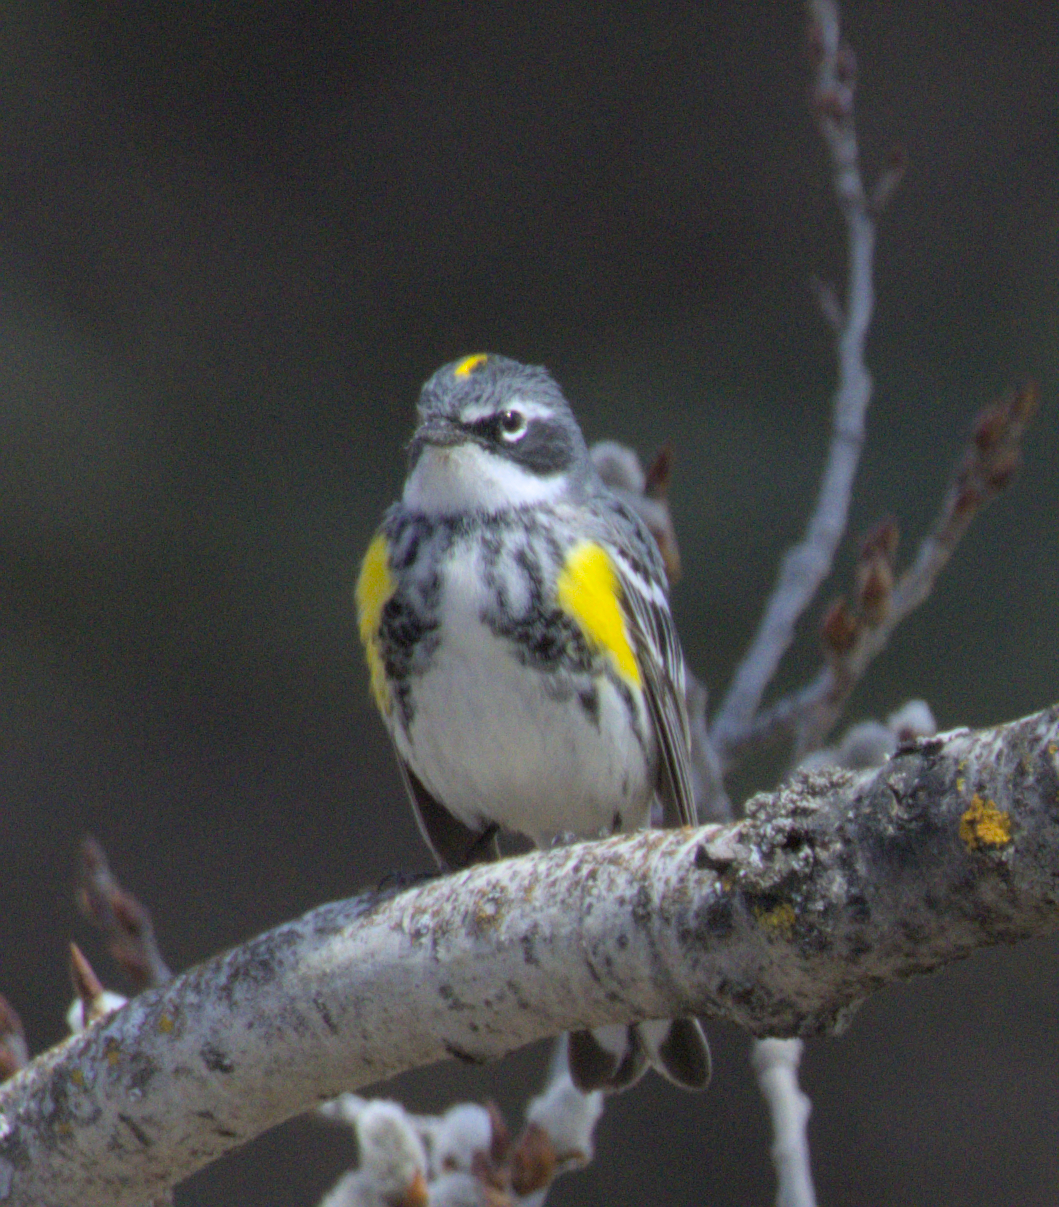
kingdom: Animalia
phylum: Chordata
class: Aves
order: Passeriformes
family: Parulidae
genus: Setophaga
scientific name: Setophaga coronata
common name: Myrtle warbler
